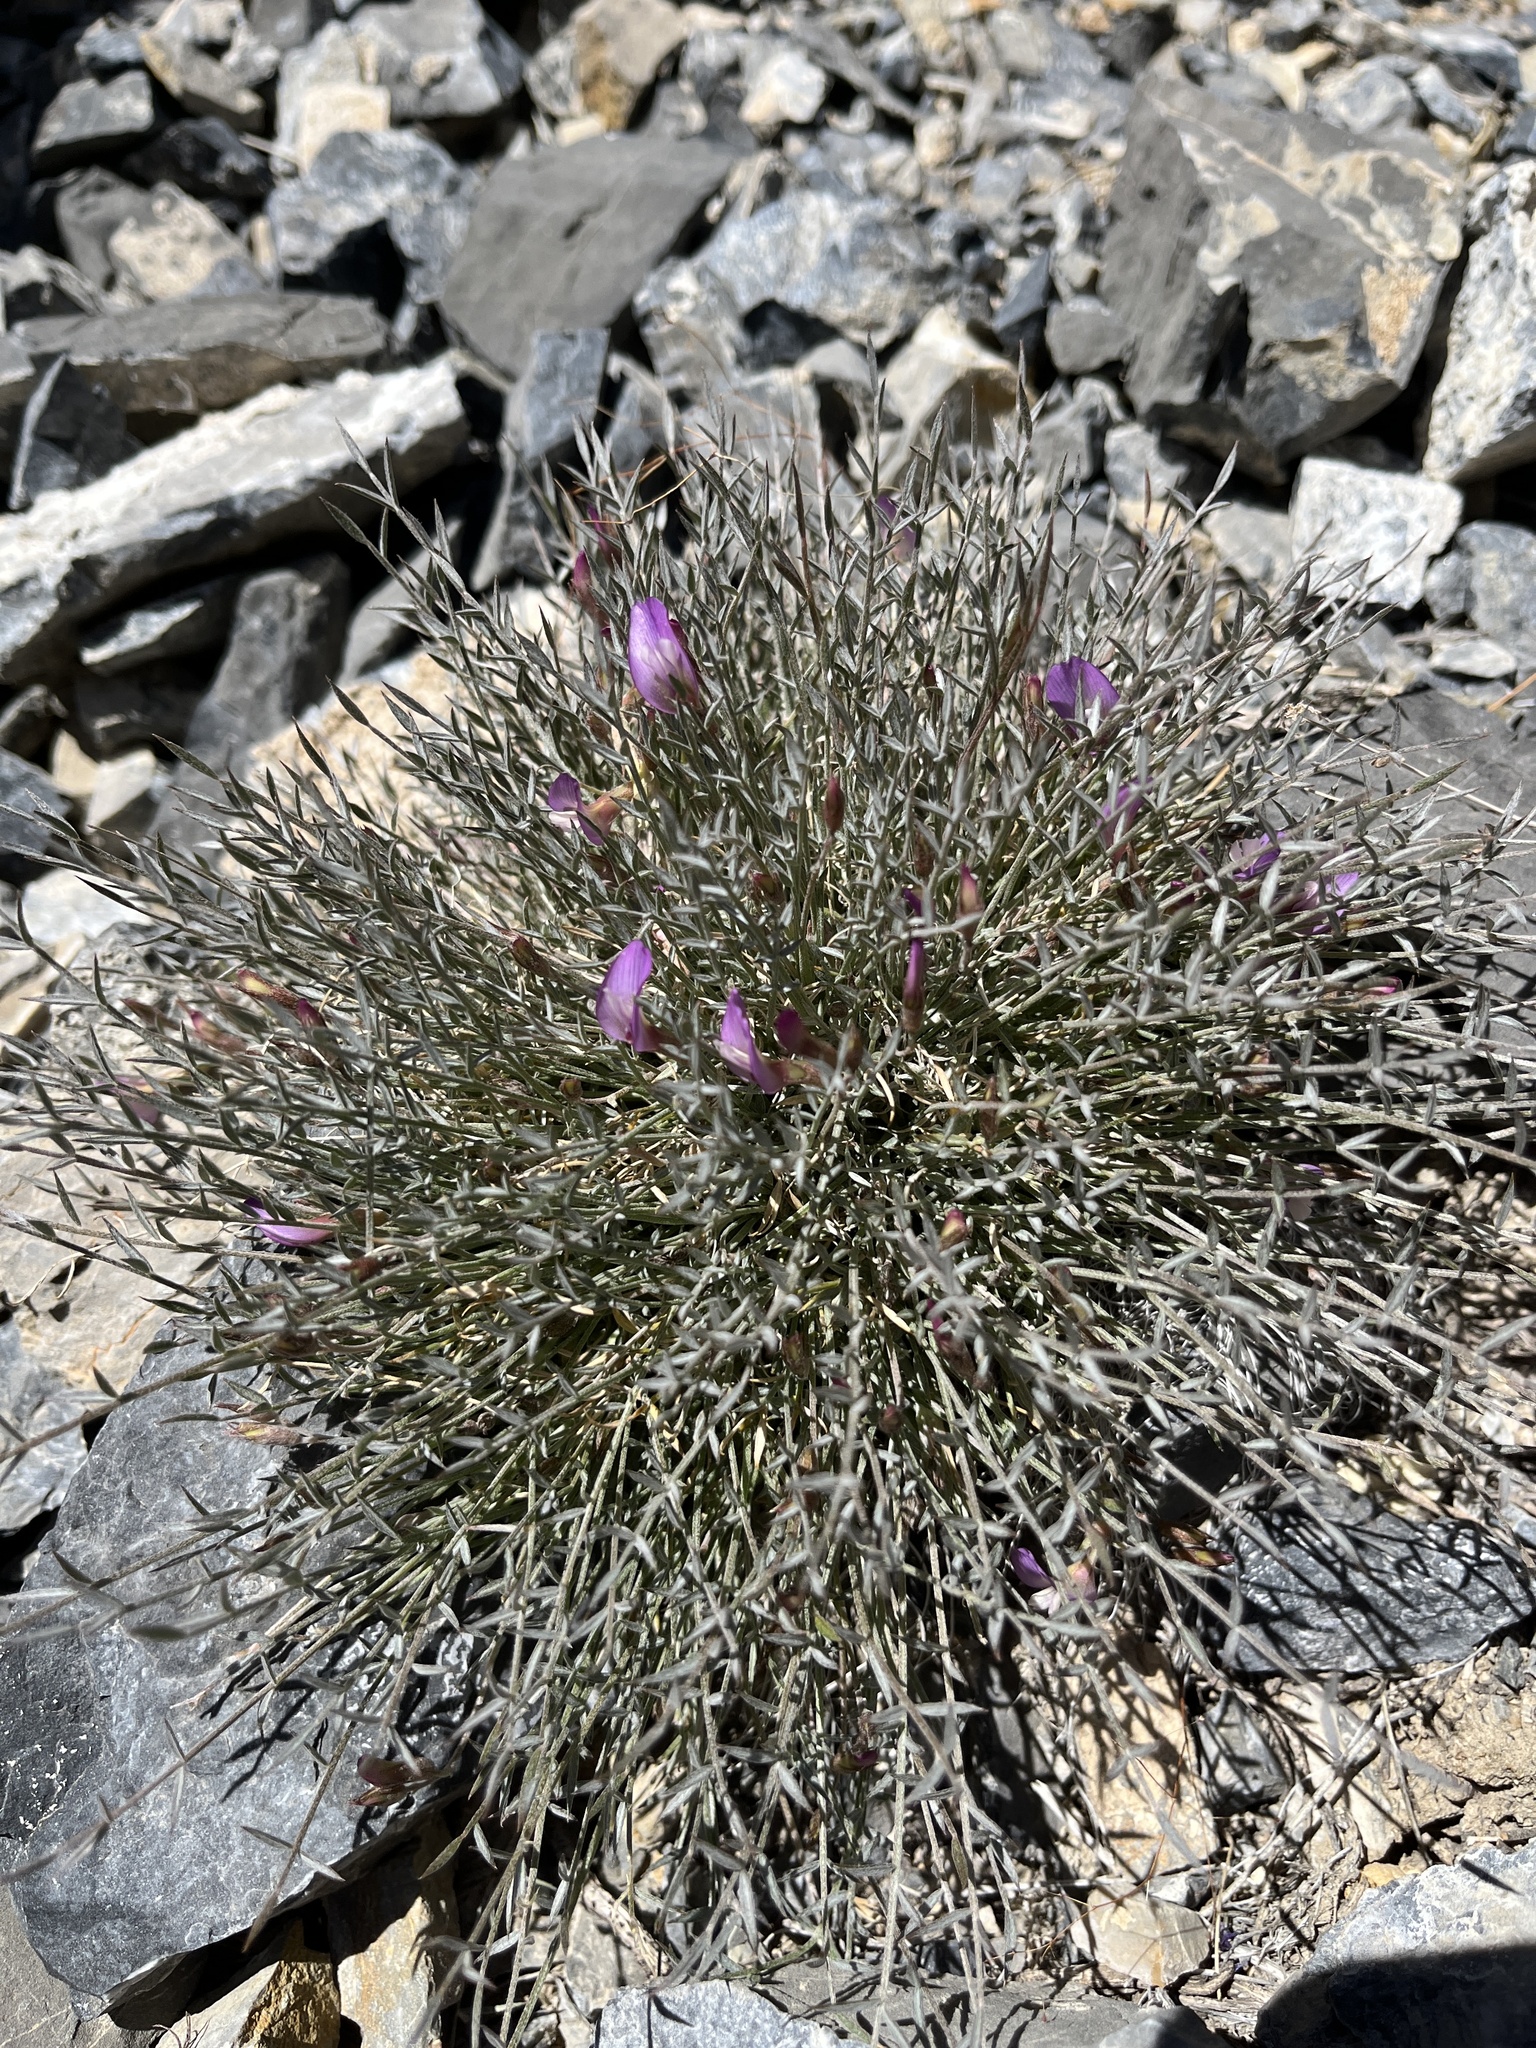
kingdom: Plantae
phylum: Tracheophyta
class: Magnoliopsida
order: Fabales
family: Fabaceae
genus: Astragalus
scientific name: Astragalus panamintensis
